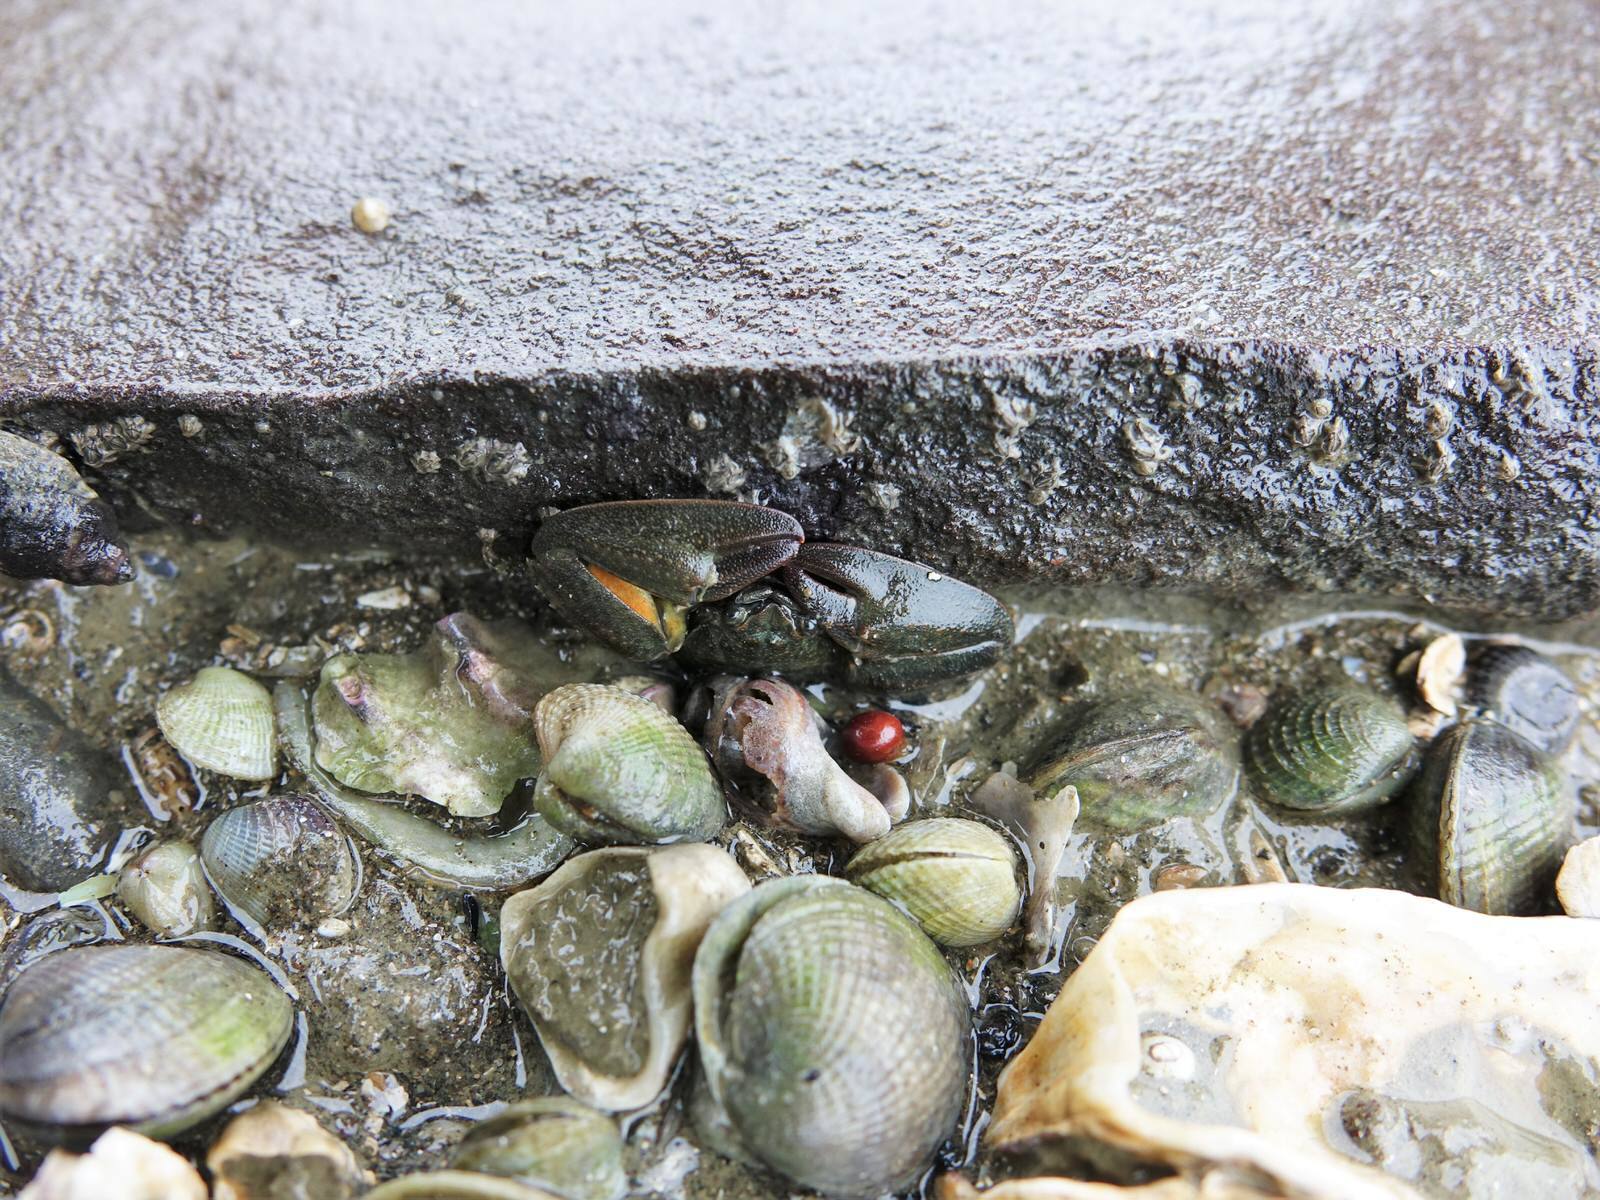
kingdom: Animalia
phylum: Arthropoda
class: Malacostraca
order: Decapoda
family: Porcellanidae
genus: Petrolisthes
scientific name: Petrolisthes elongatus
